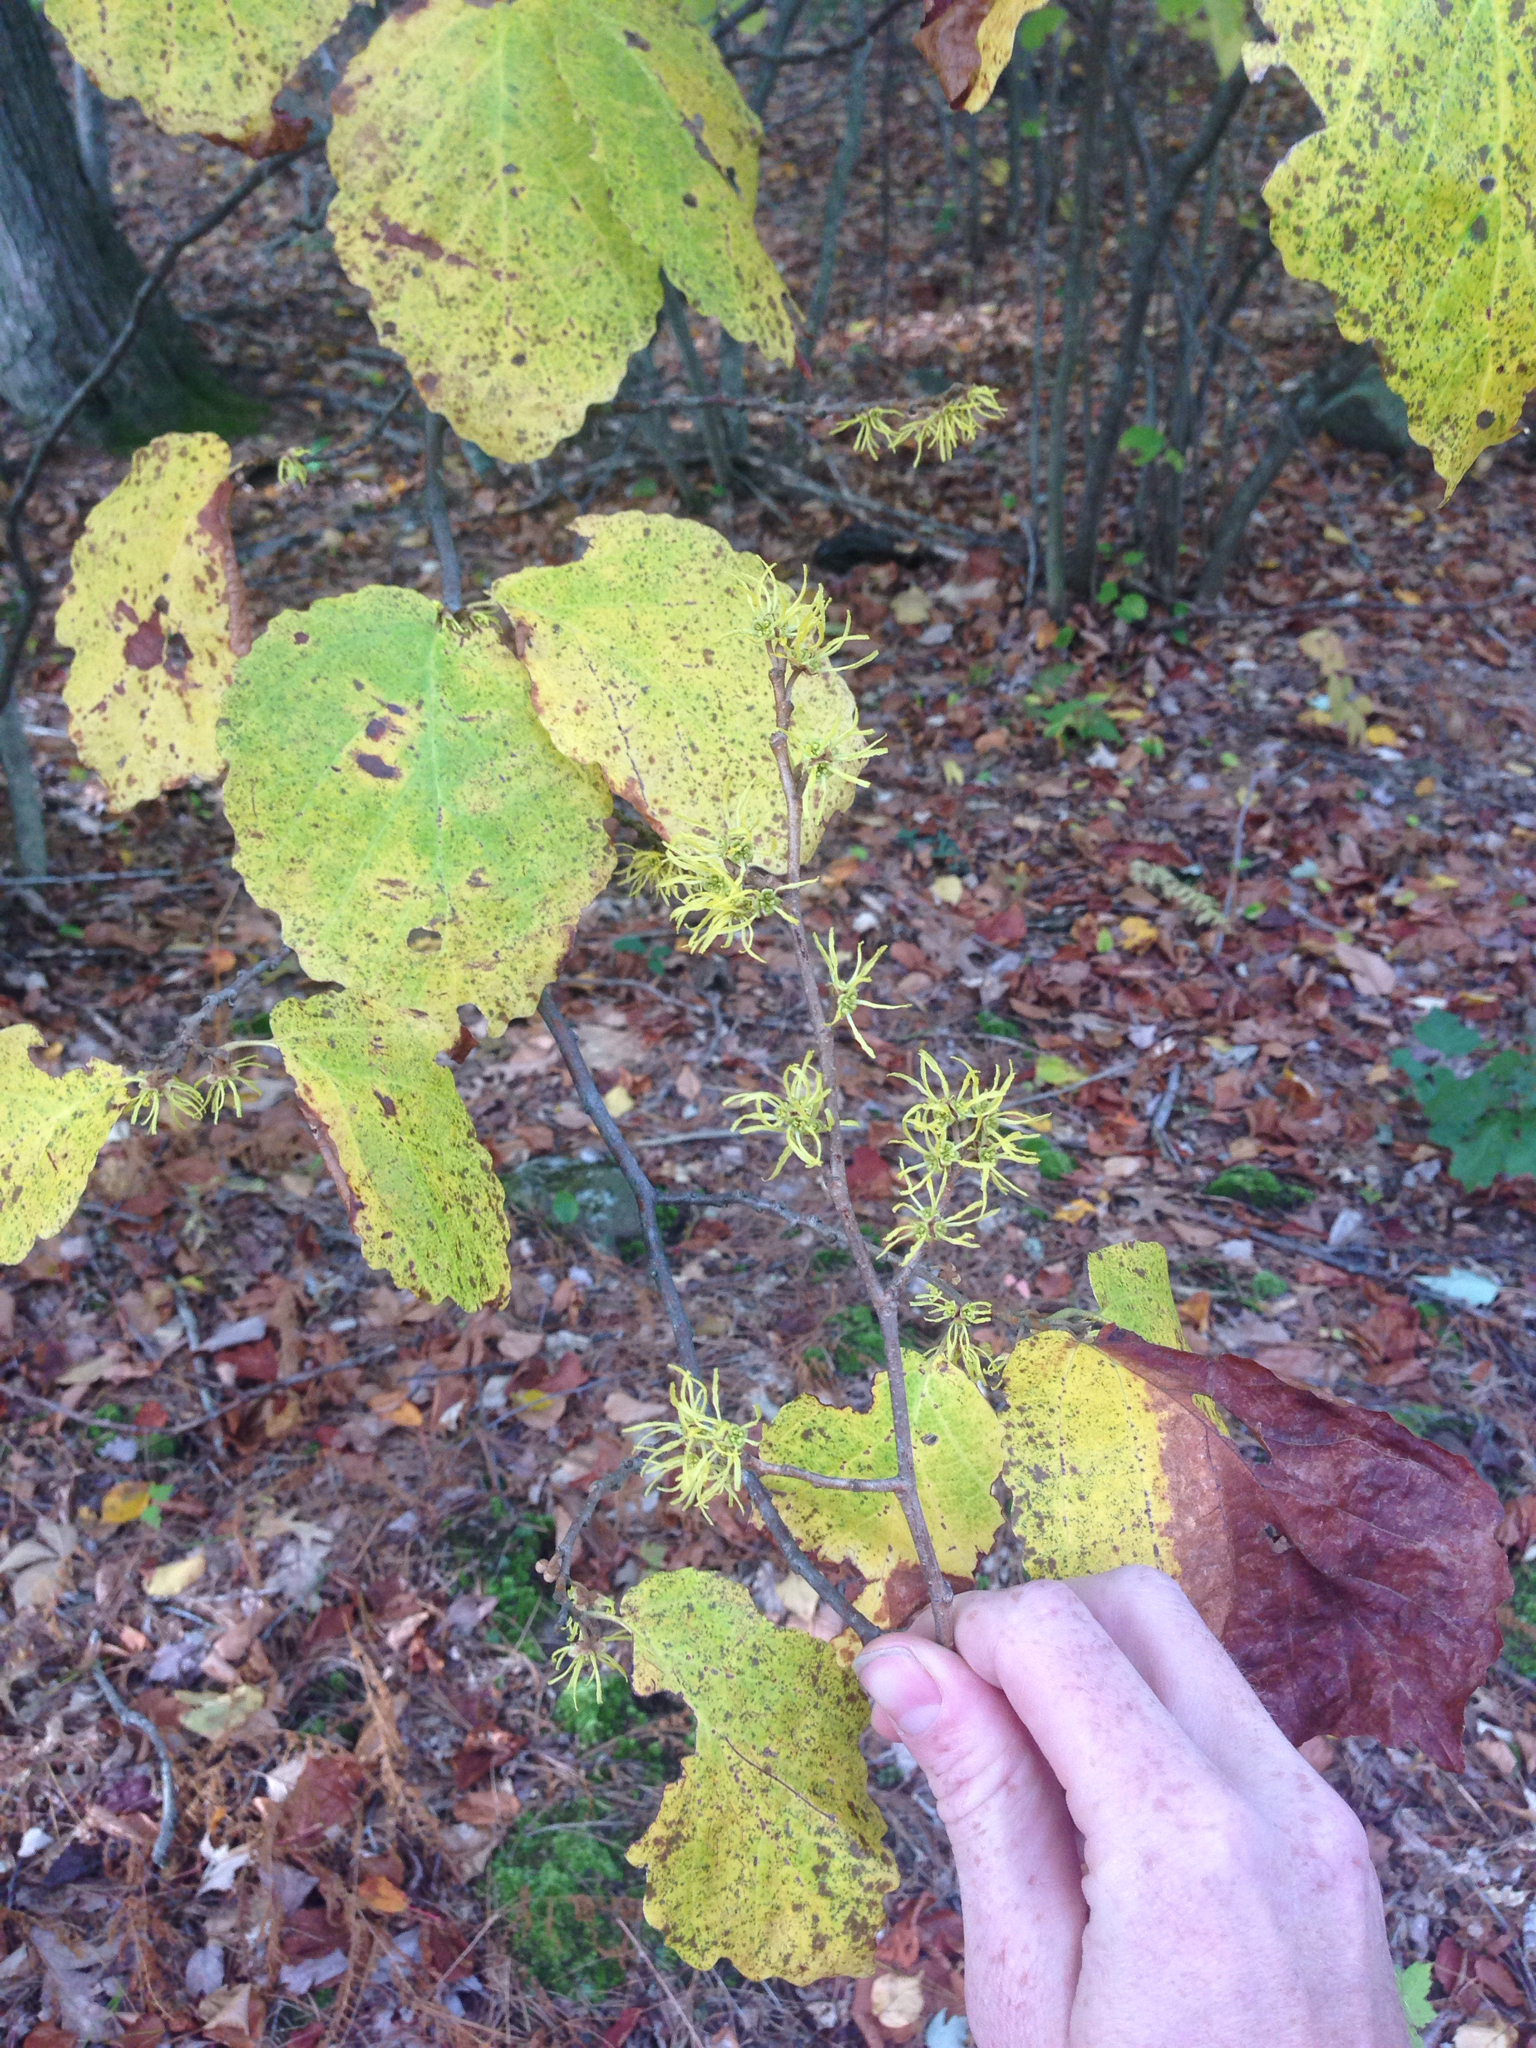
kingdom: Plantae
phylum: Tracheophyta
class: Magnoliopsida
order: Saxifragales
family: Hamamelidaceae
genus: Hamamelis
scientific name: Hamamelis virginiana
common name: Witch-hazel
